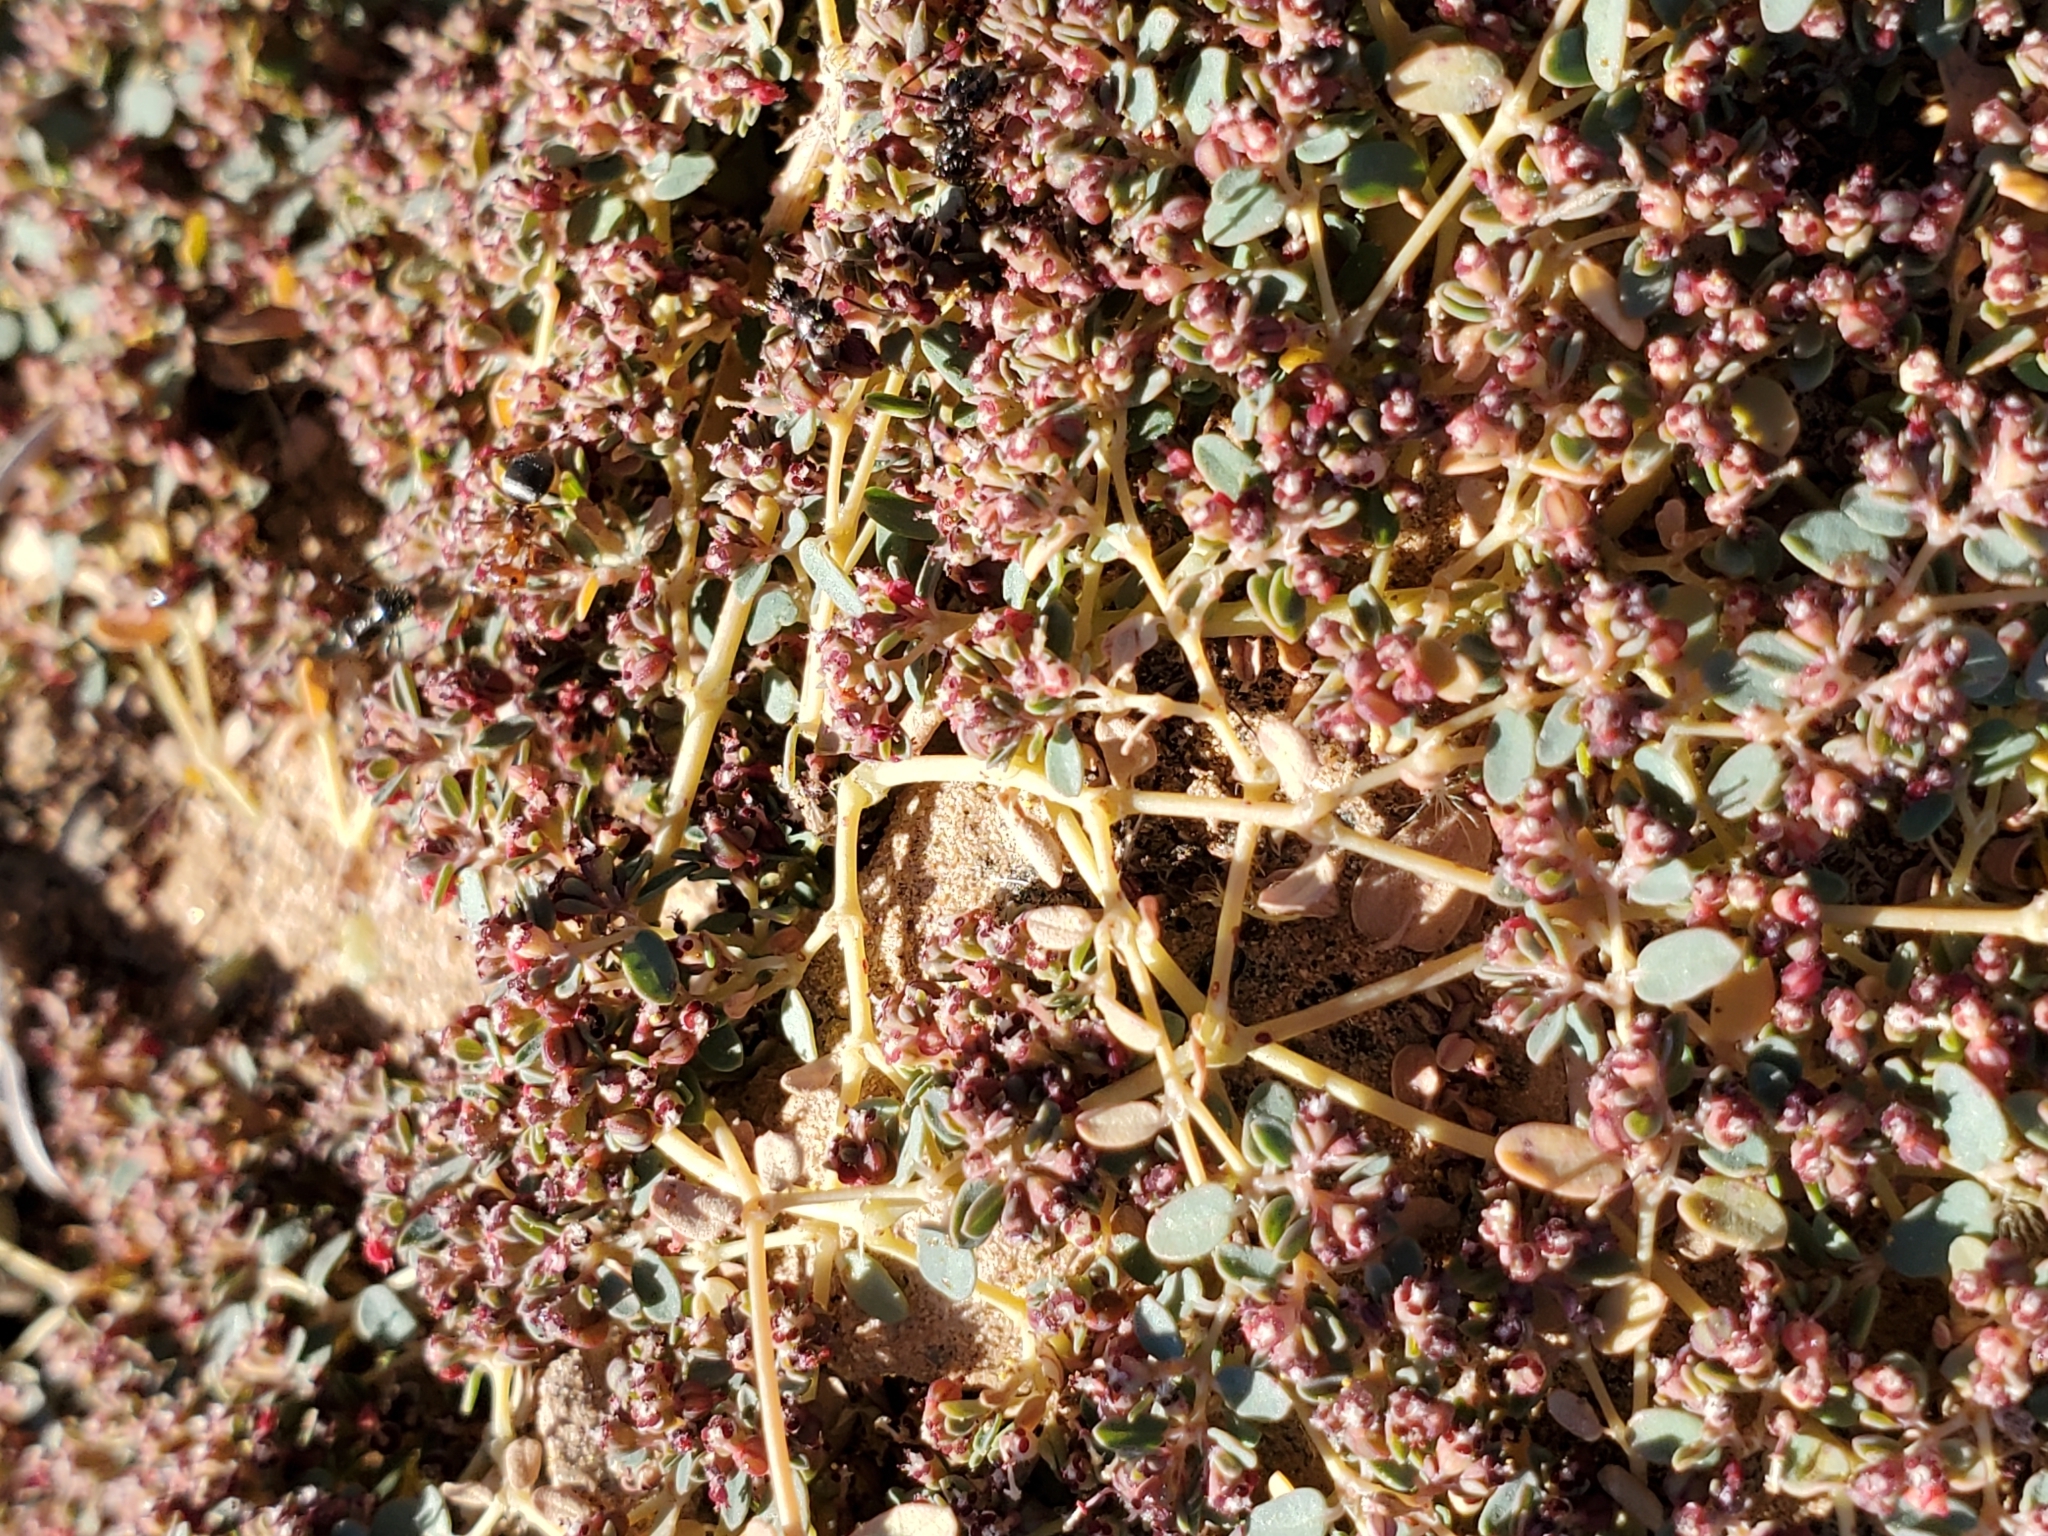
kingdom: Plantae
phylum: Tracheophyta
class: Magnoliopsida
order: Malpighiales
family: Euphorbiaceae
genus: Euphorbia
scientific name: Euphorbia polycarpa
